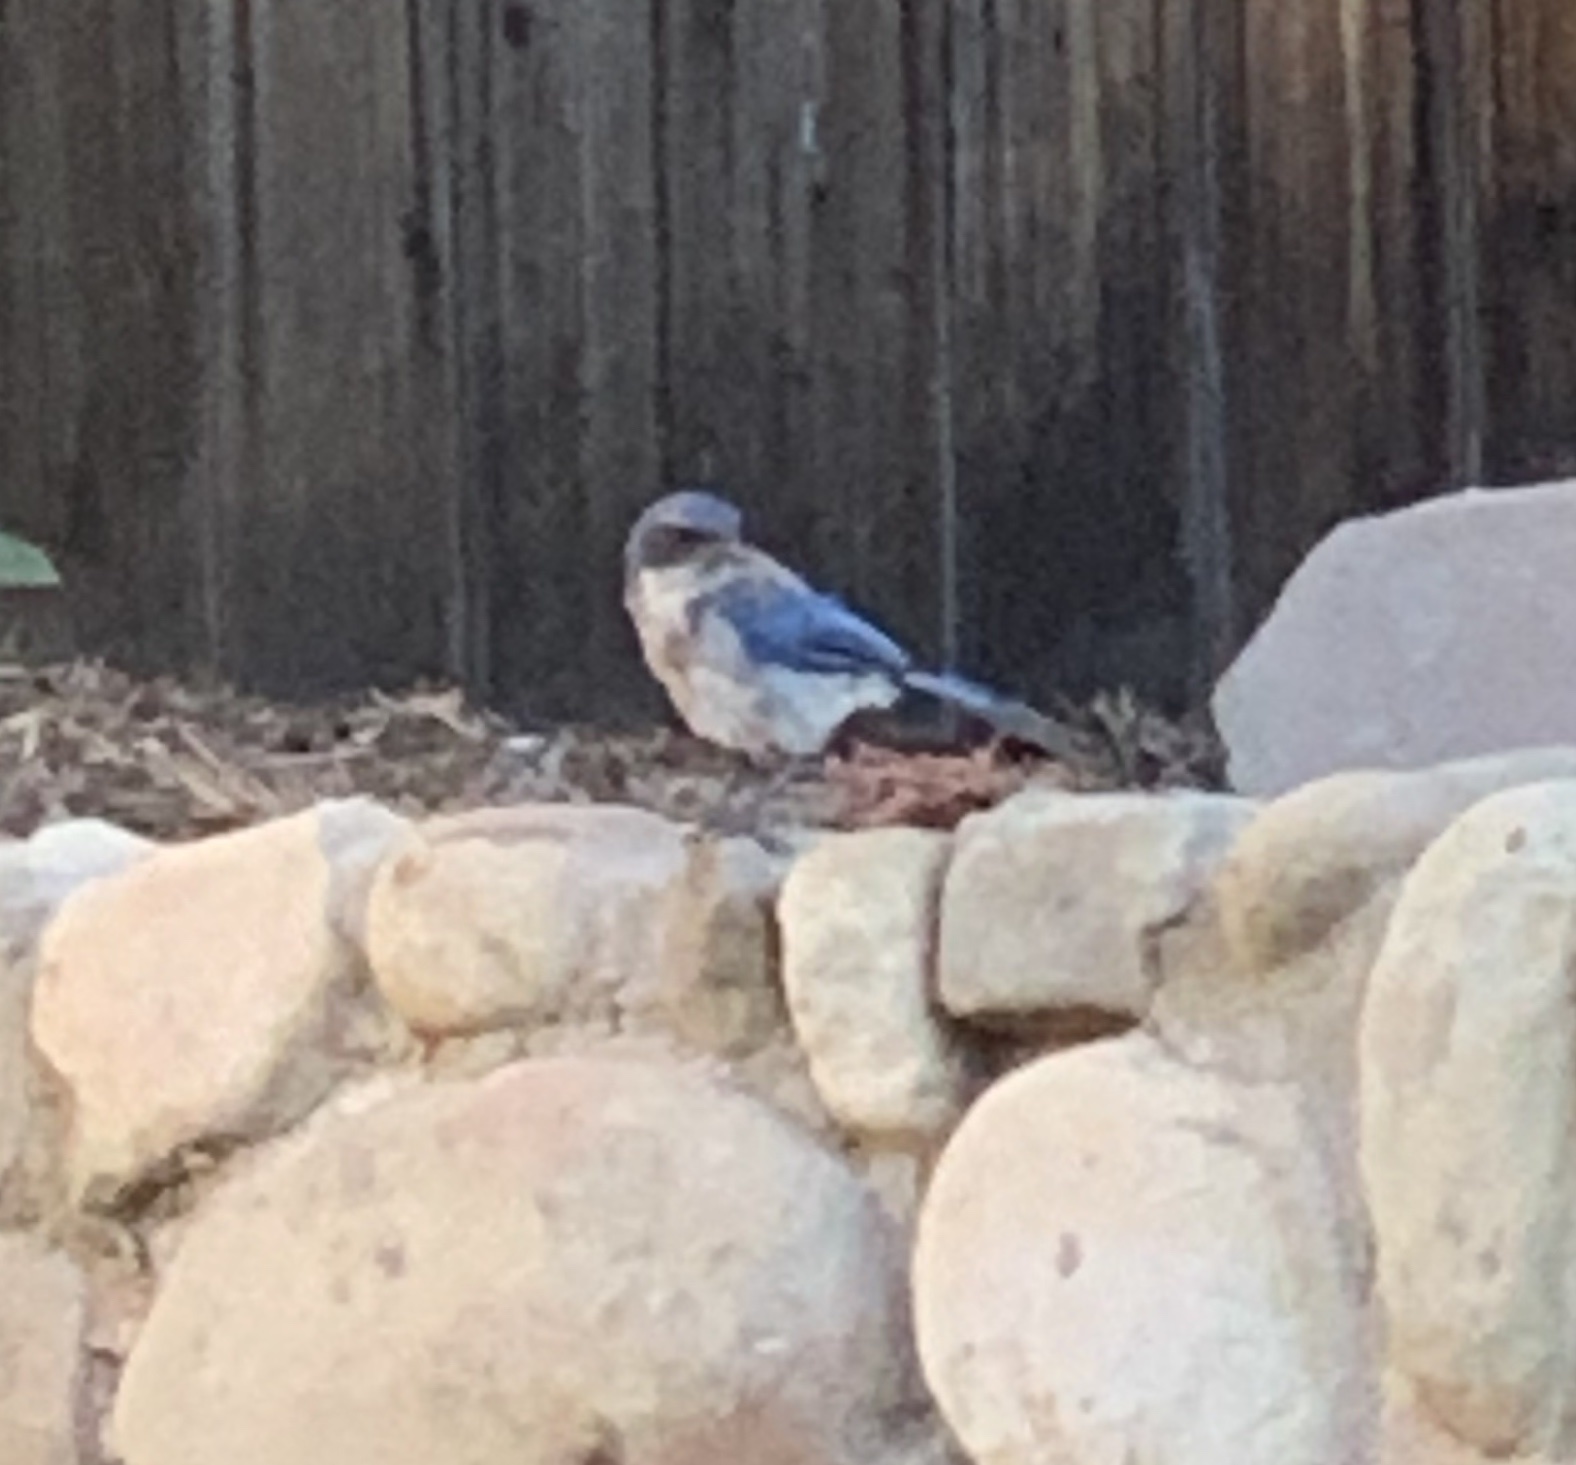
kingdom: Animalia
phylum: Chordata
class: Aves
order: Passeriformes
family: Corvidae
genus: Aphelocoma
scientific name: Aphelocoma californica
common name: California scrub-jay
